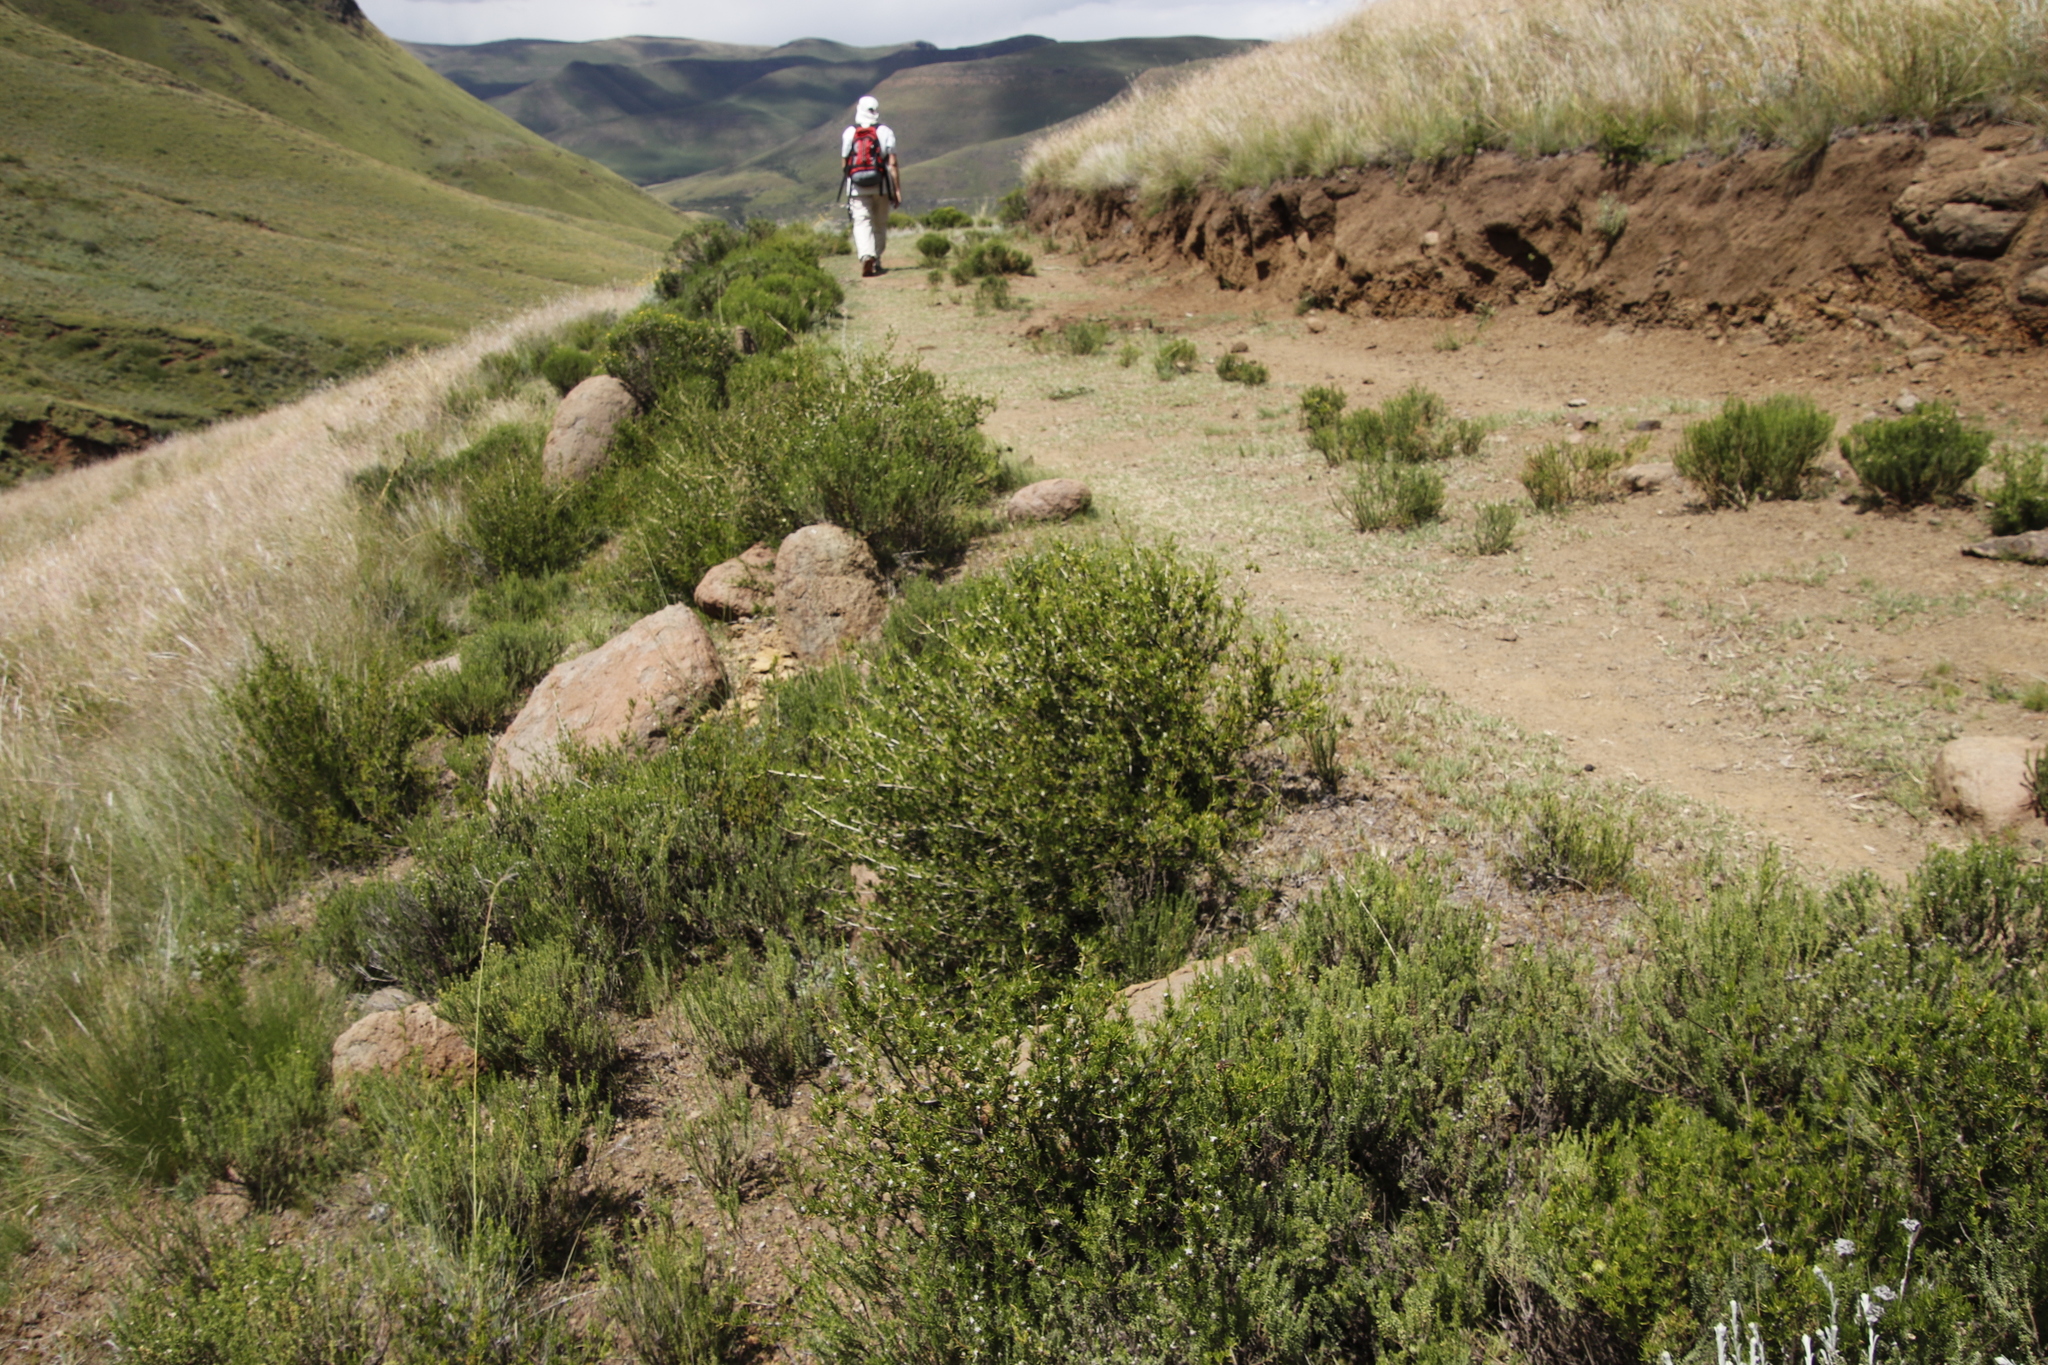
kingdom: Plantae
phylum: Tracheophyta
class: Magnoliopsida
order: Asterales
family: Asteraceae
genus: Felicia
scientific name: Felicia filifolia
